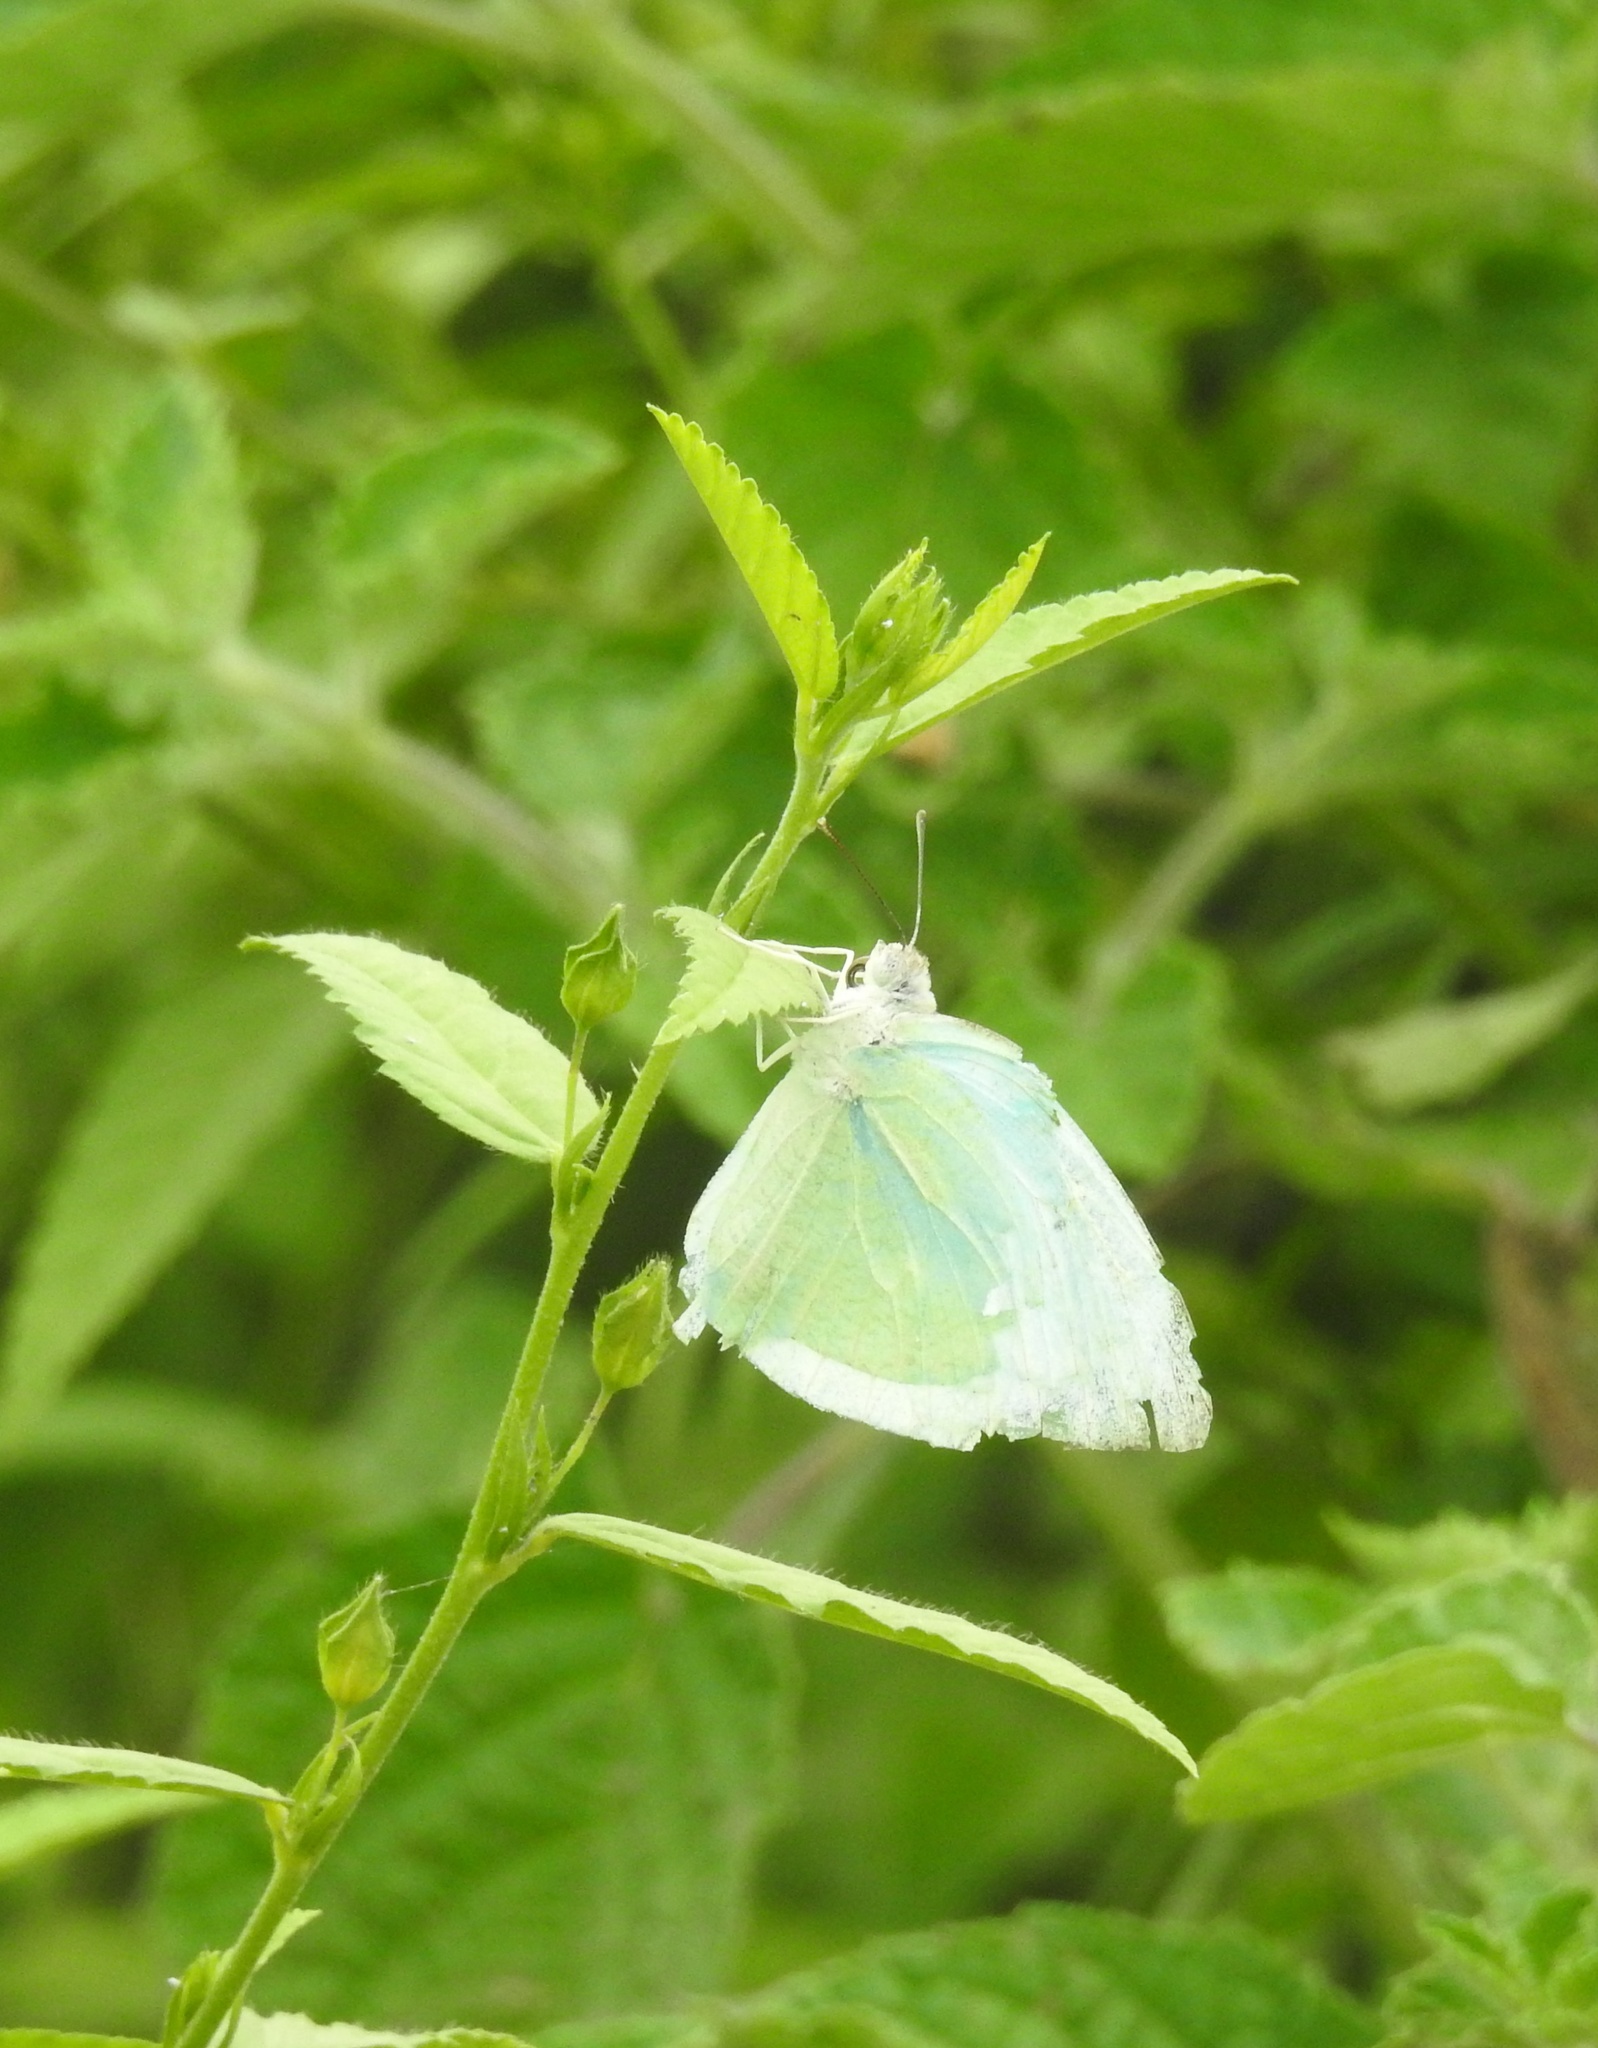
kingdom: Animalia
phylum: Arthropoda
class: Insecta
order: Lepidoptera
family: Pieridae
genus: Catopsilia
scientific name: Catopsilia pyranthe
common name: Mottled emigrant
